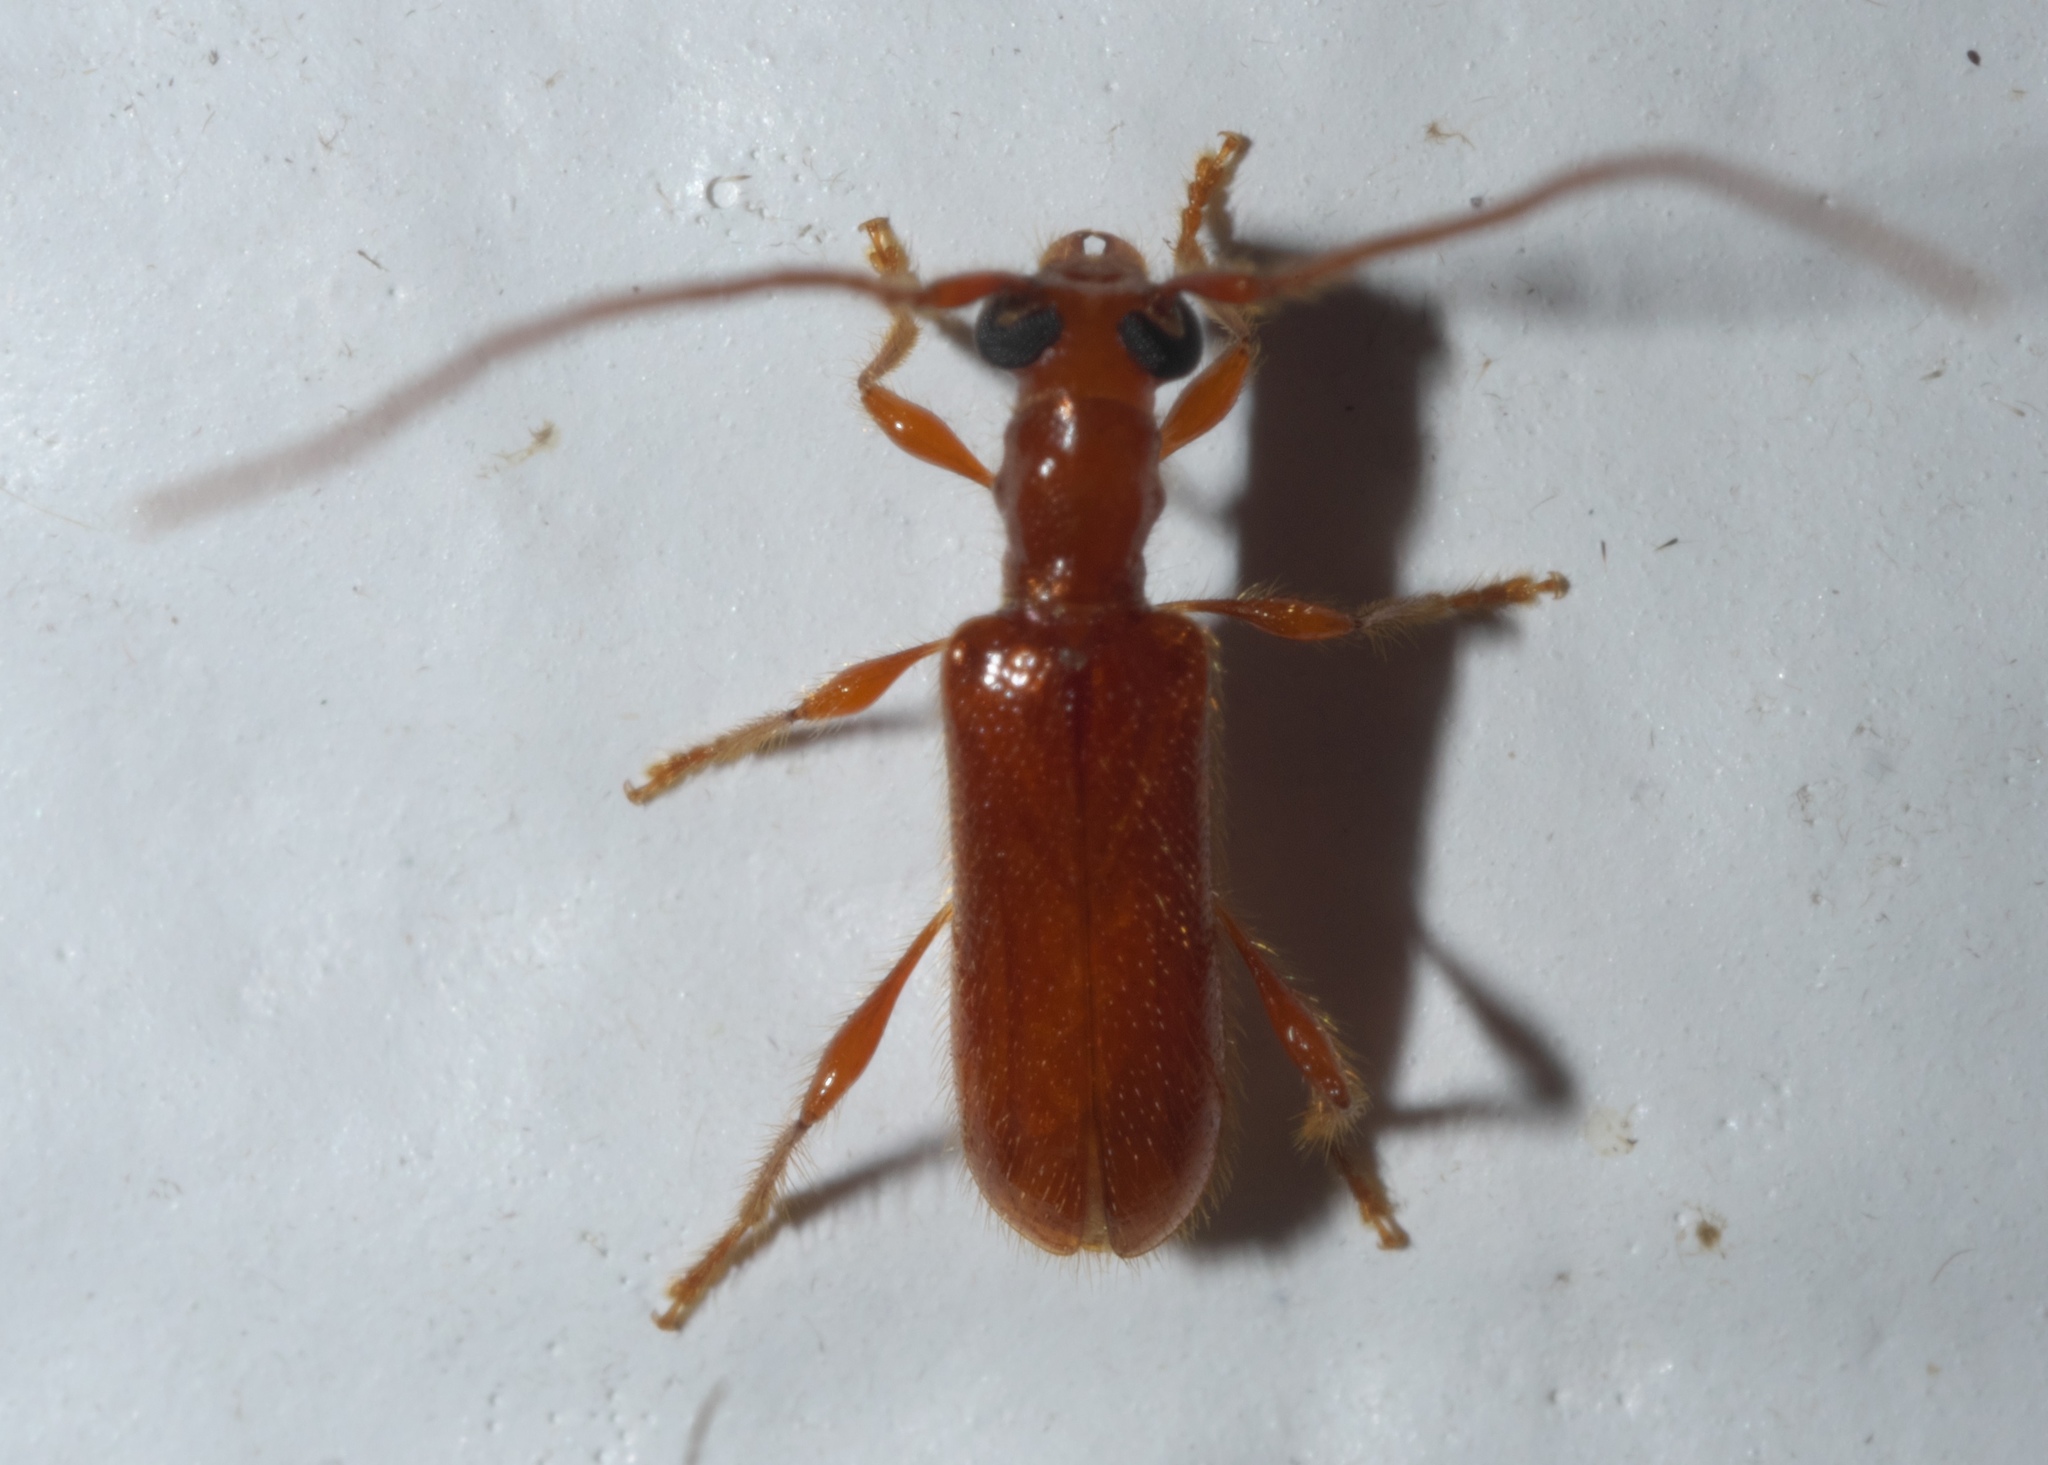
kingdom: Animalia
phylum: Arthropoda
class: Insecta
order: Coleoptera
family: Cerambycidae
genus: Obrium
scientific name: Obrium rufulum
